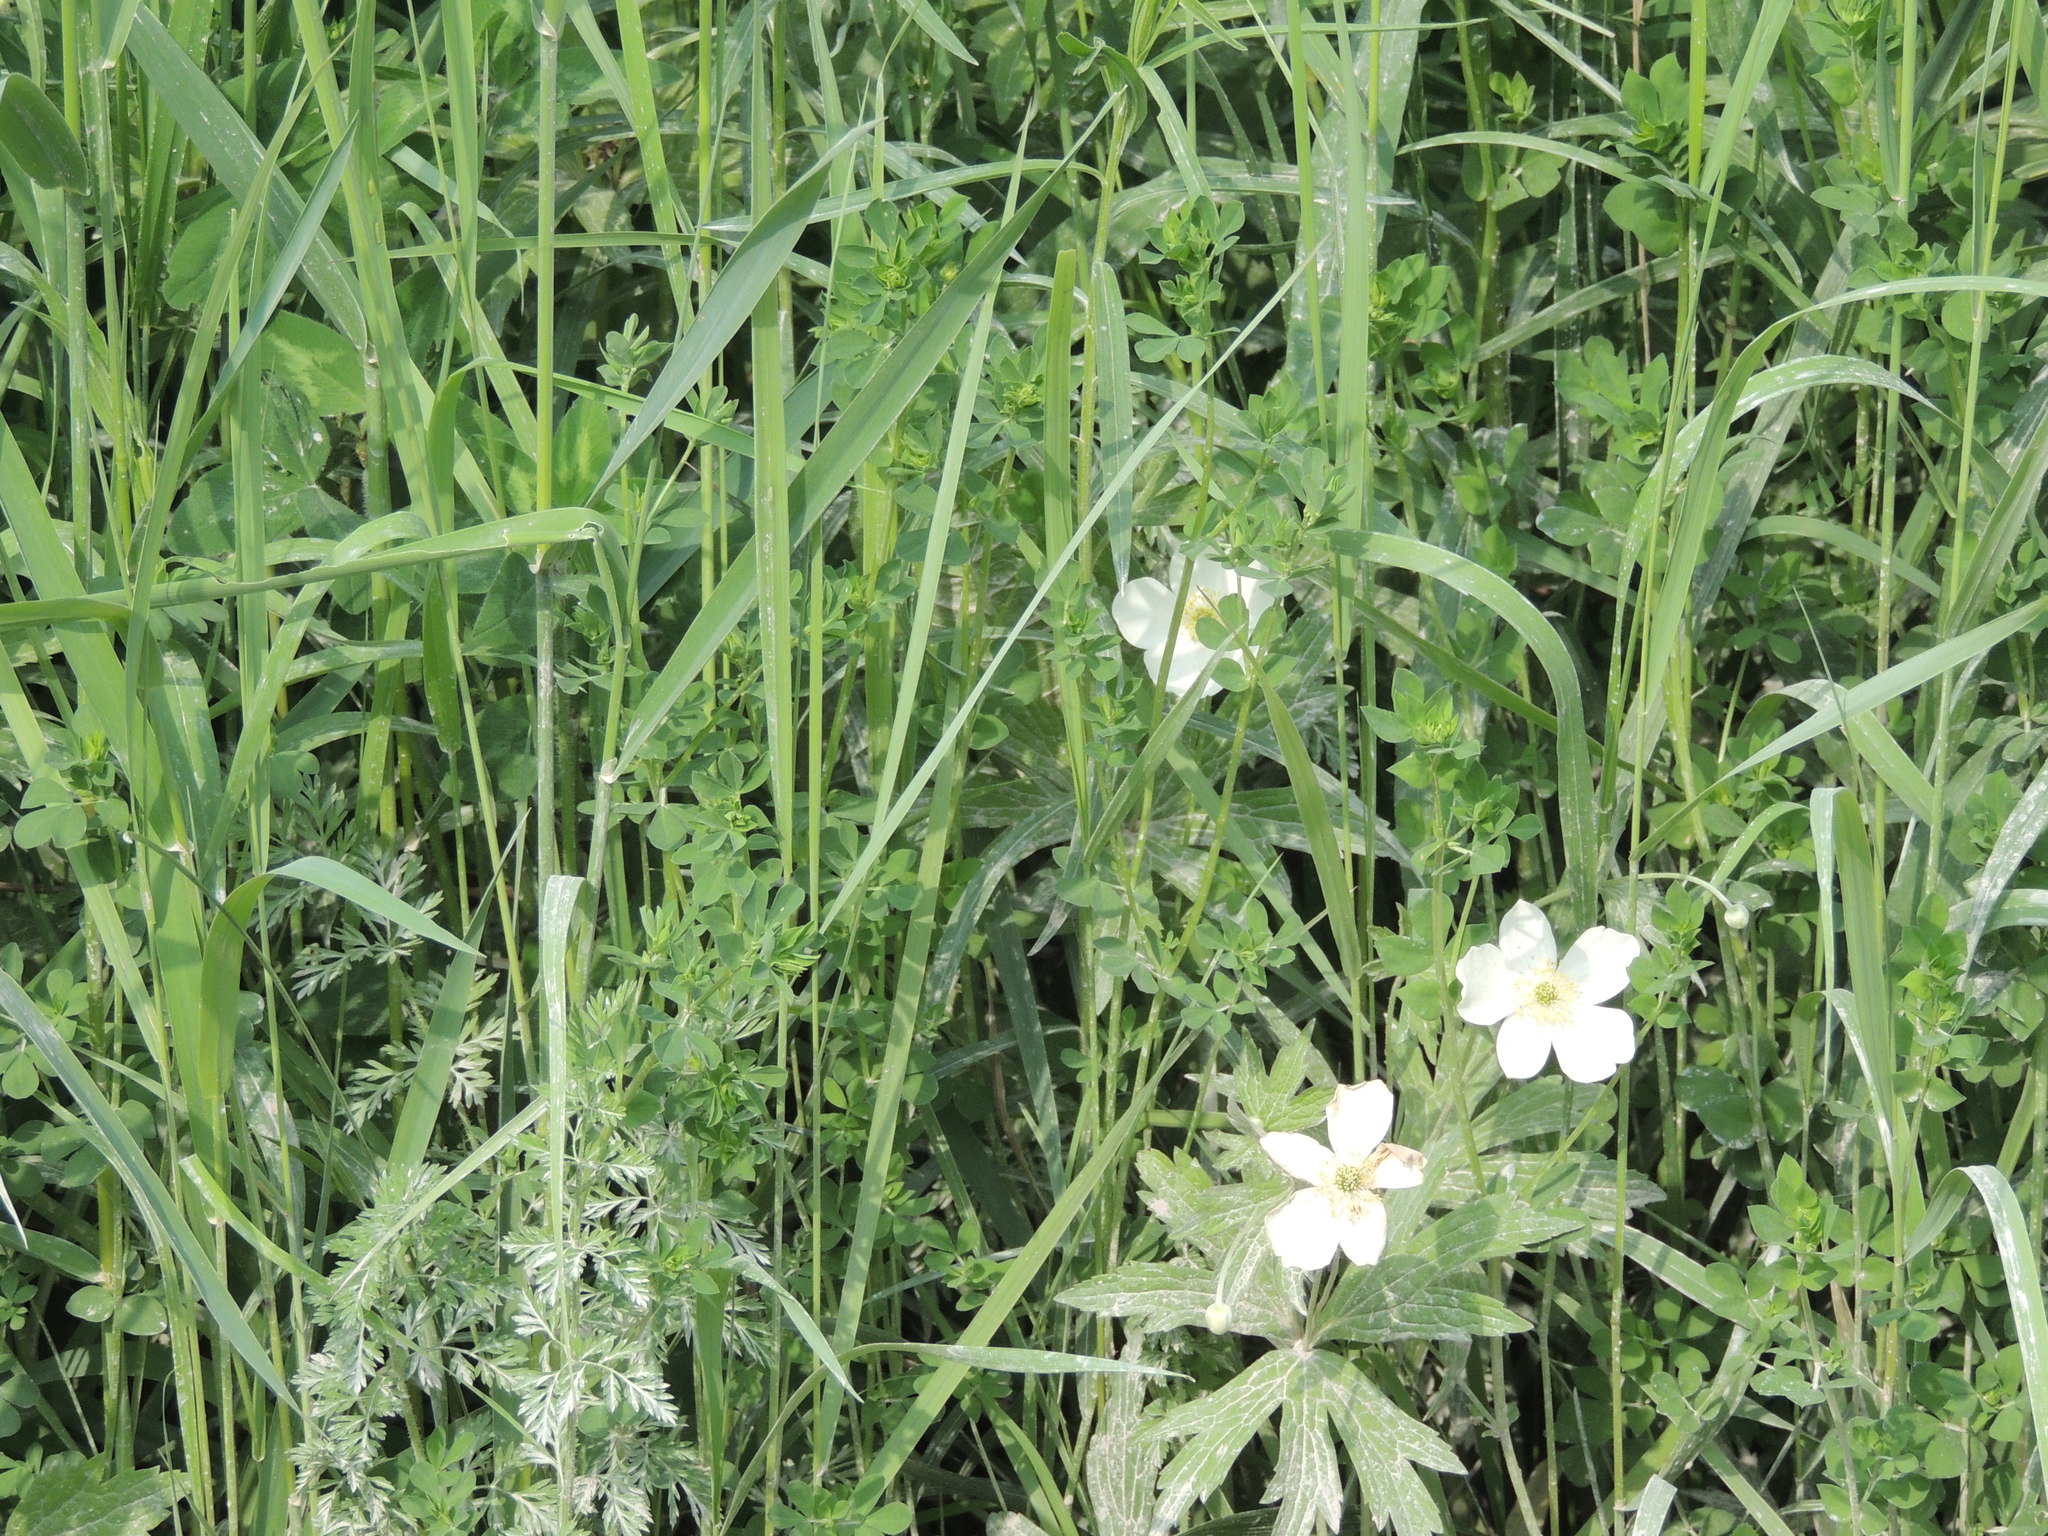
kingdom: Plantae
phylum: Tracheophyta
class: Magnoliopsida
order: Ranunculales
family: Ranunculaceae
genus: Anemonastrum
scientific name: Anemonastrum canadense
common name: Canada anemone
